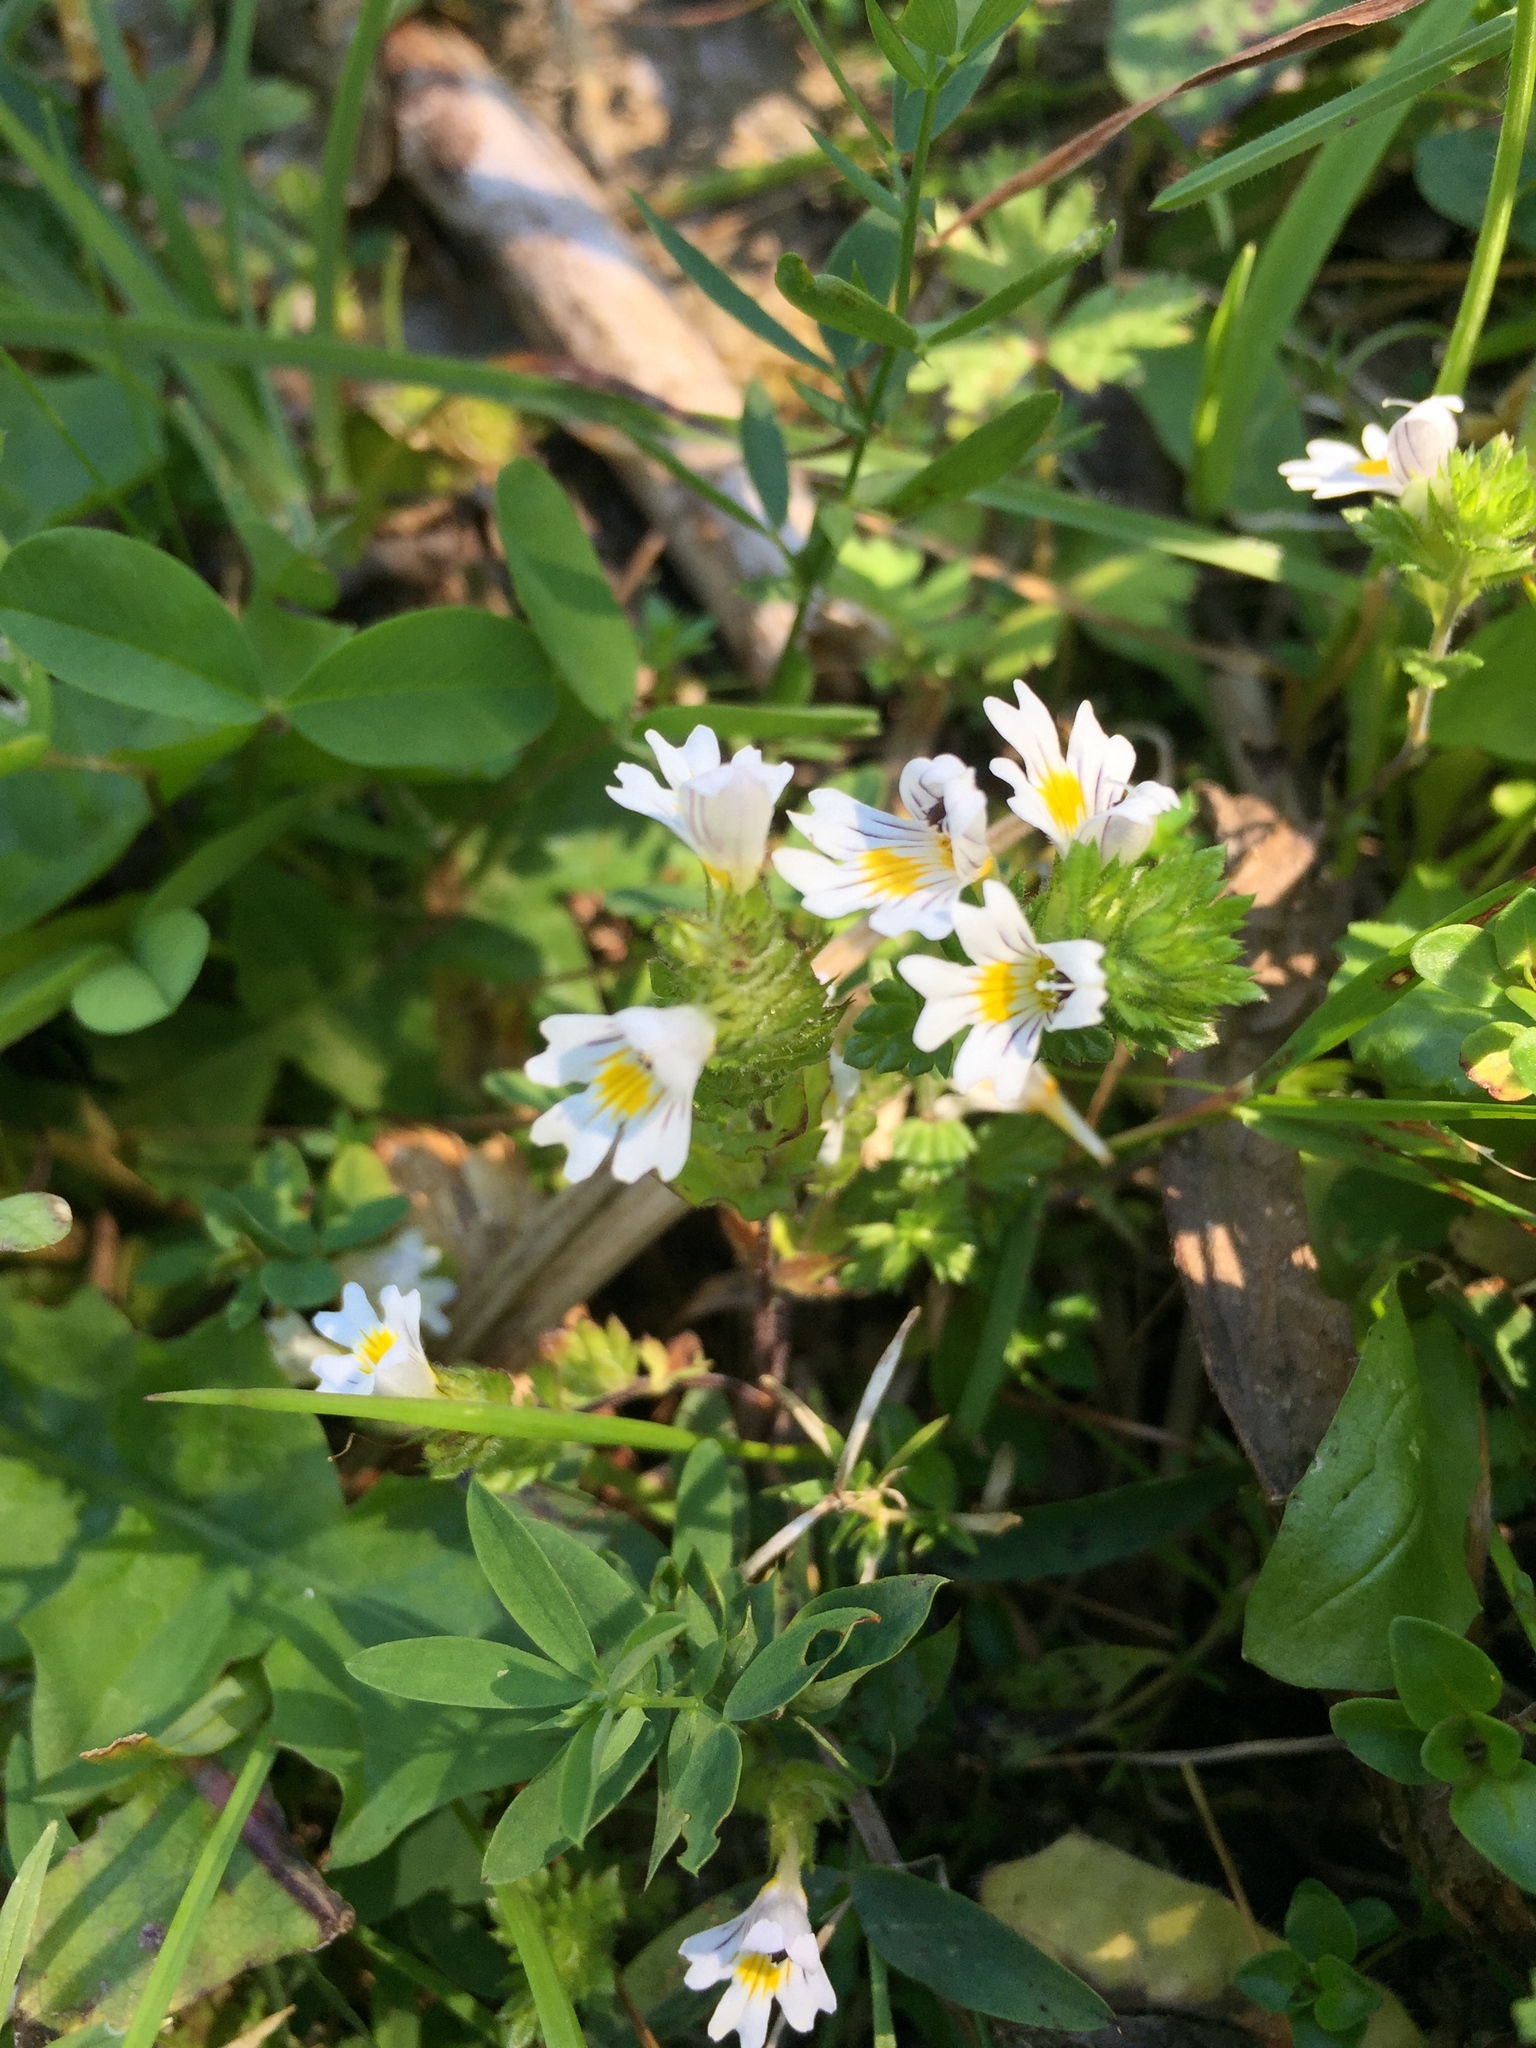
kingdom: Plantae
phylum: Tracheophyta
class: Magnoliopsida
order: Lamiales
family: Orobanchaceae
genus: Euphrasia
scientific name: Euphrasia officinalis
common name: Eyebright
